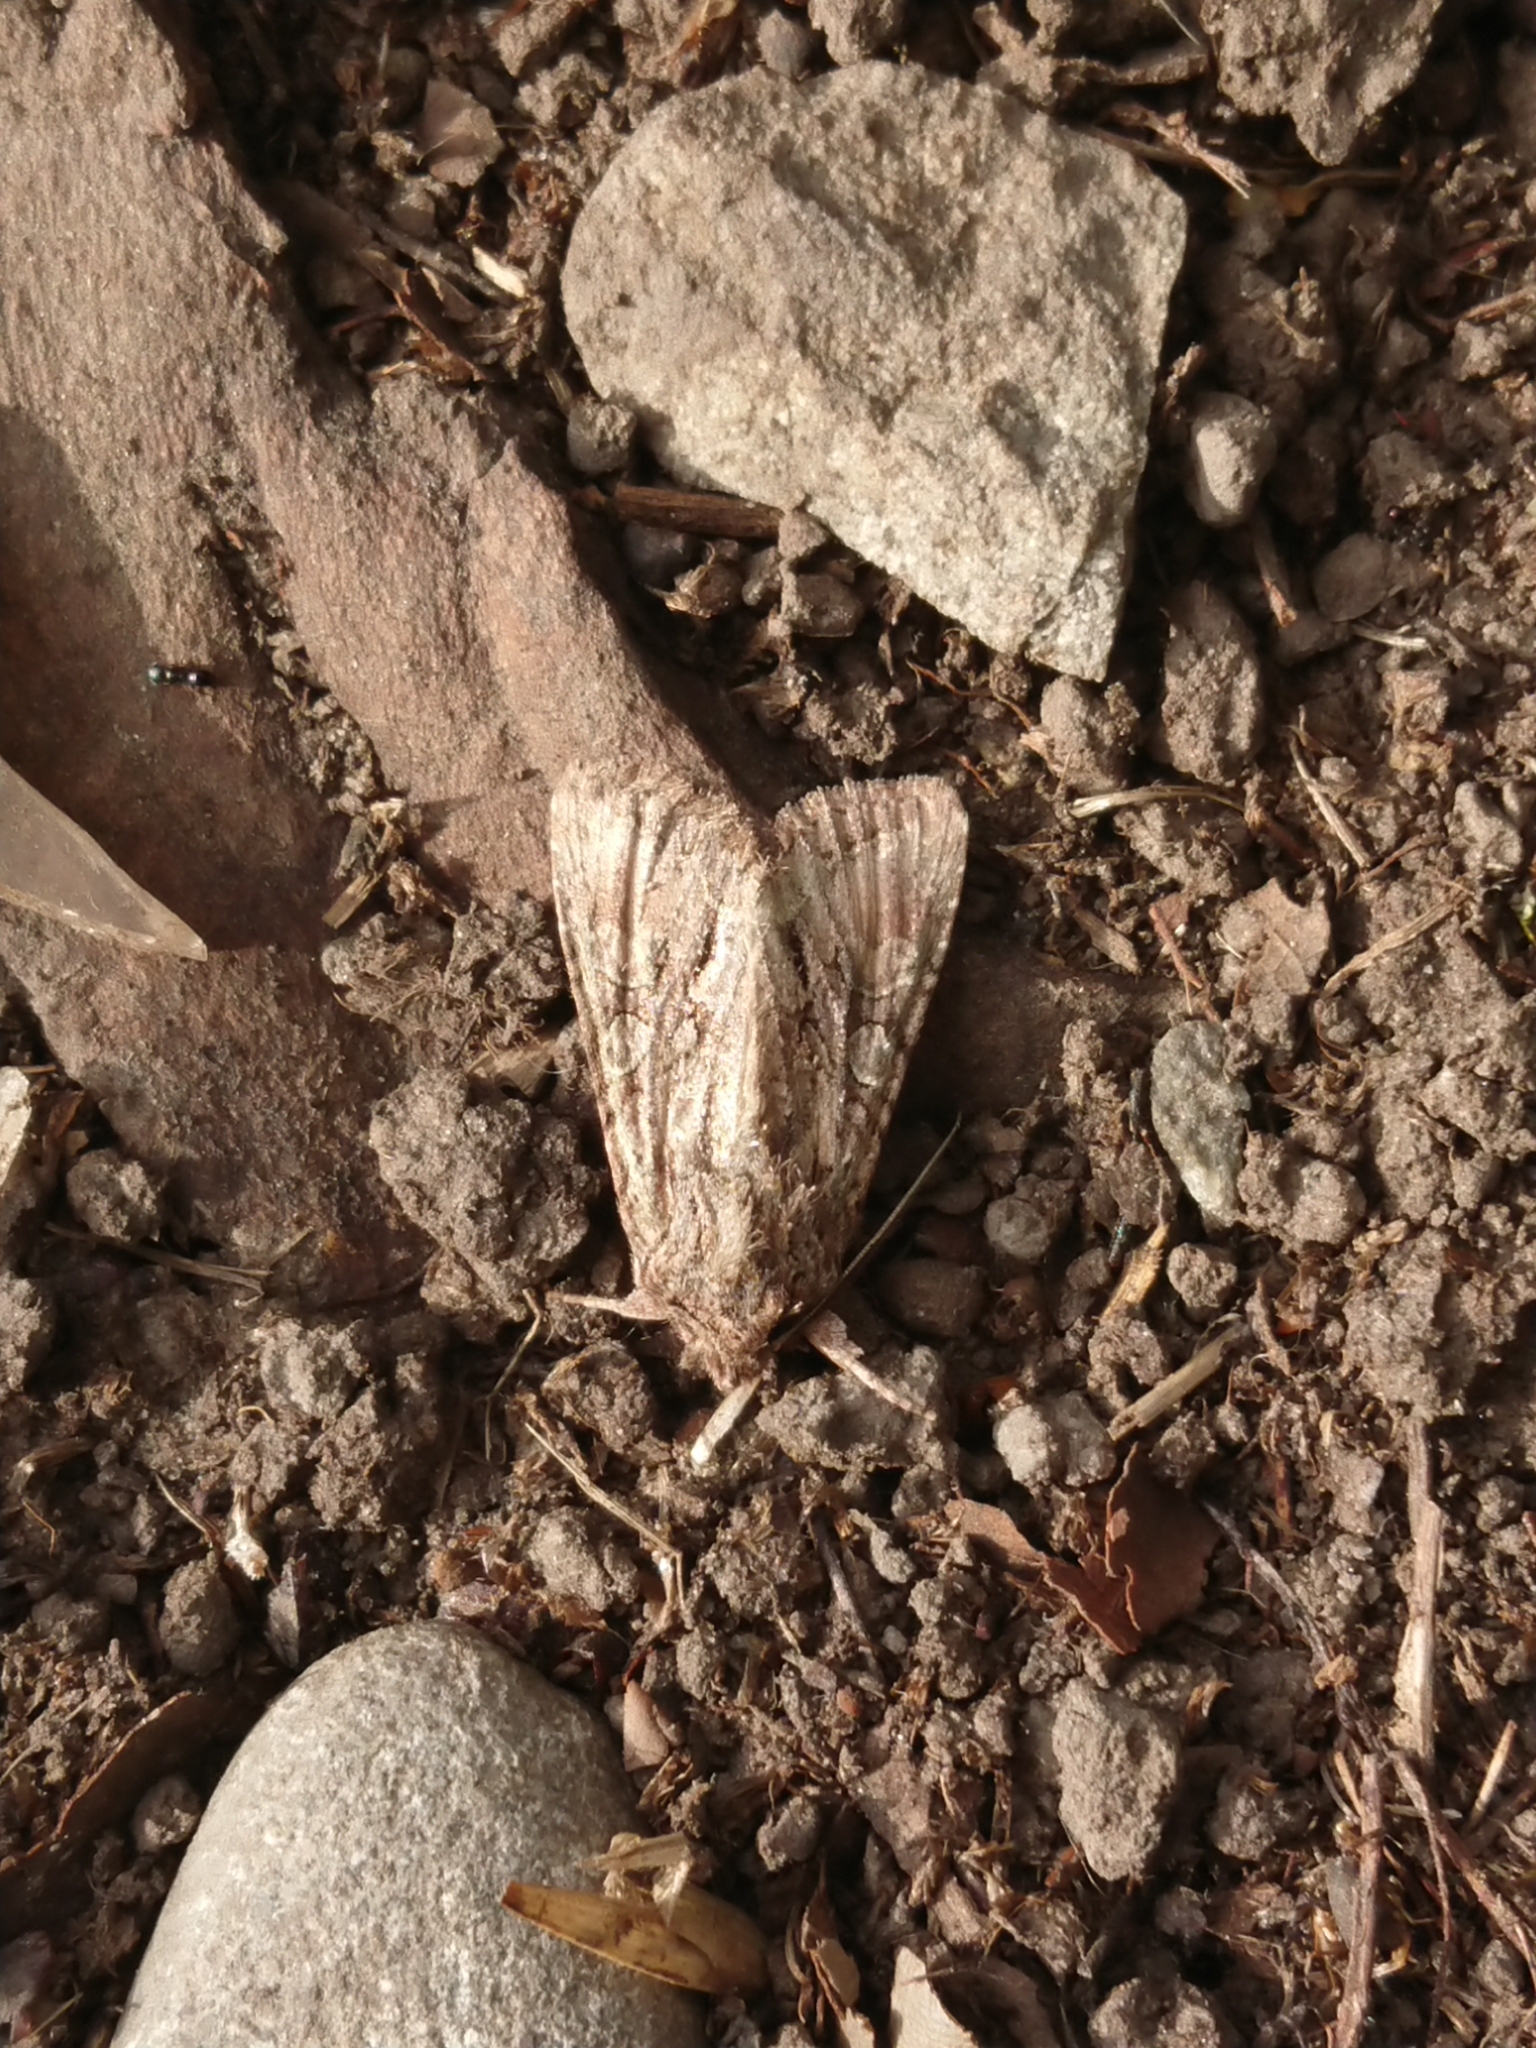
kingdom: Animalia
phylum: Arthropoda
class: Insecta
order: Lepidoptera
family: Noctuidae
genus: Ichneutica
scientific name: Ichneutica mutans
